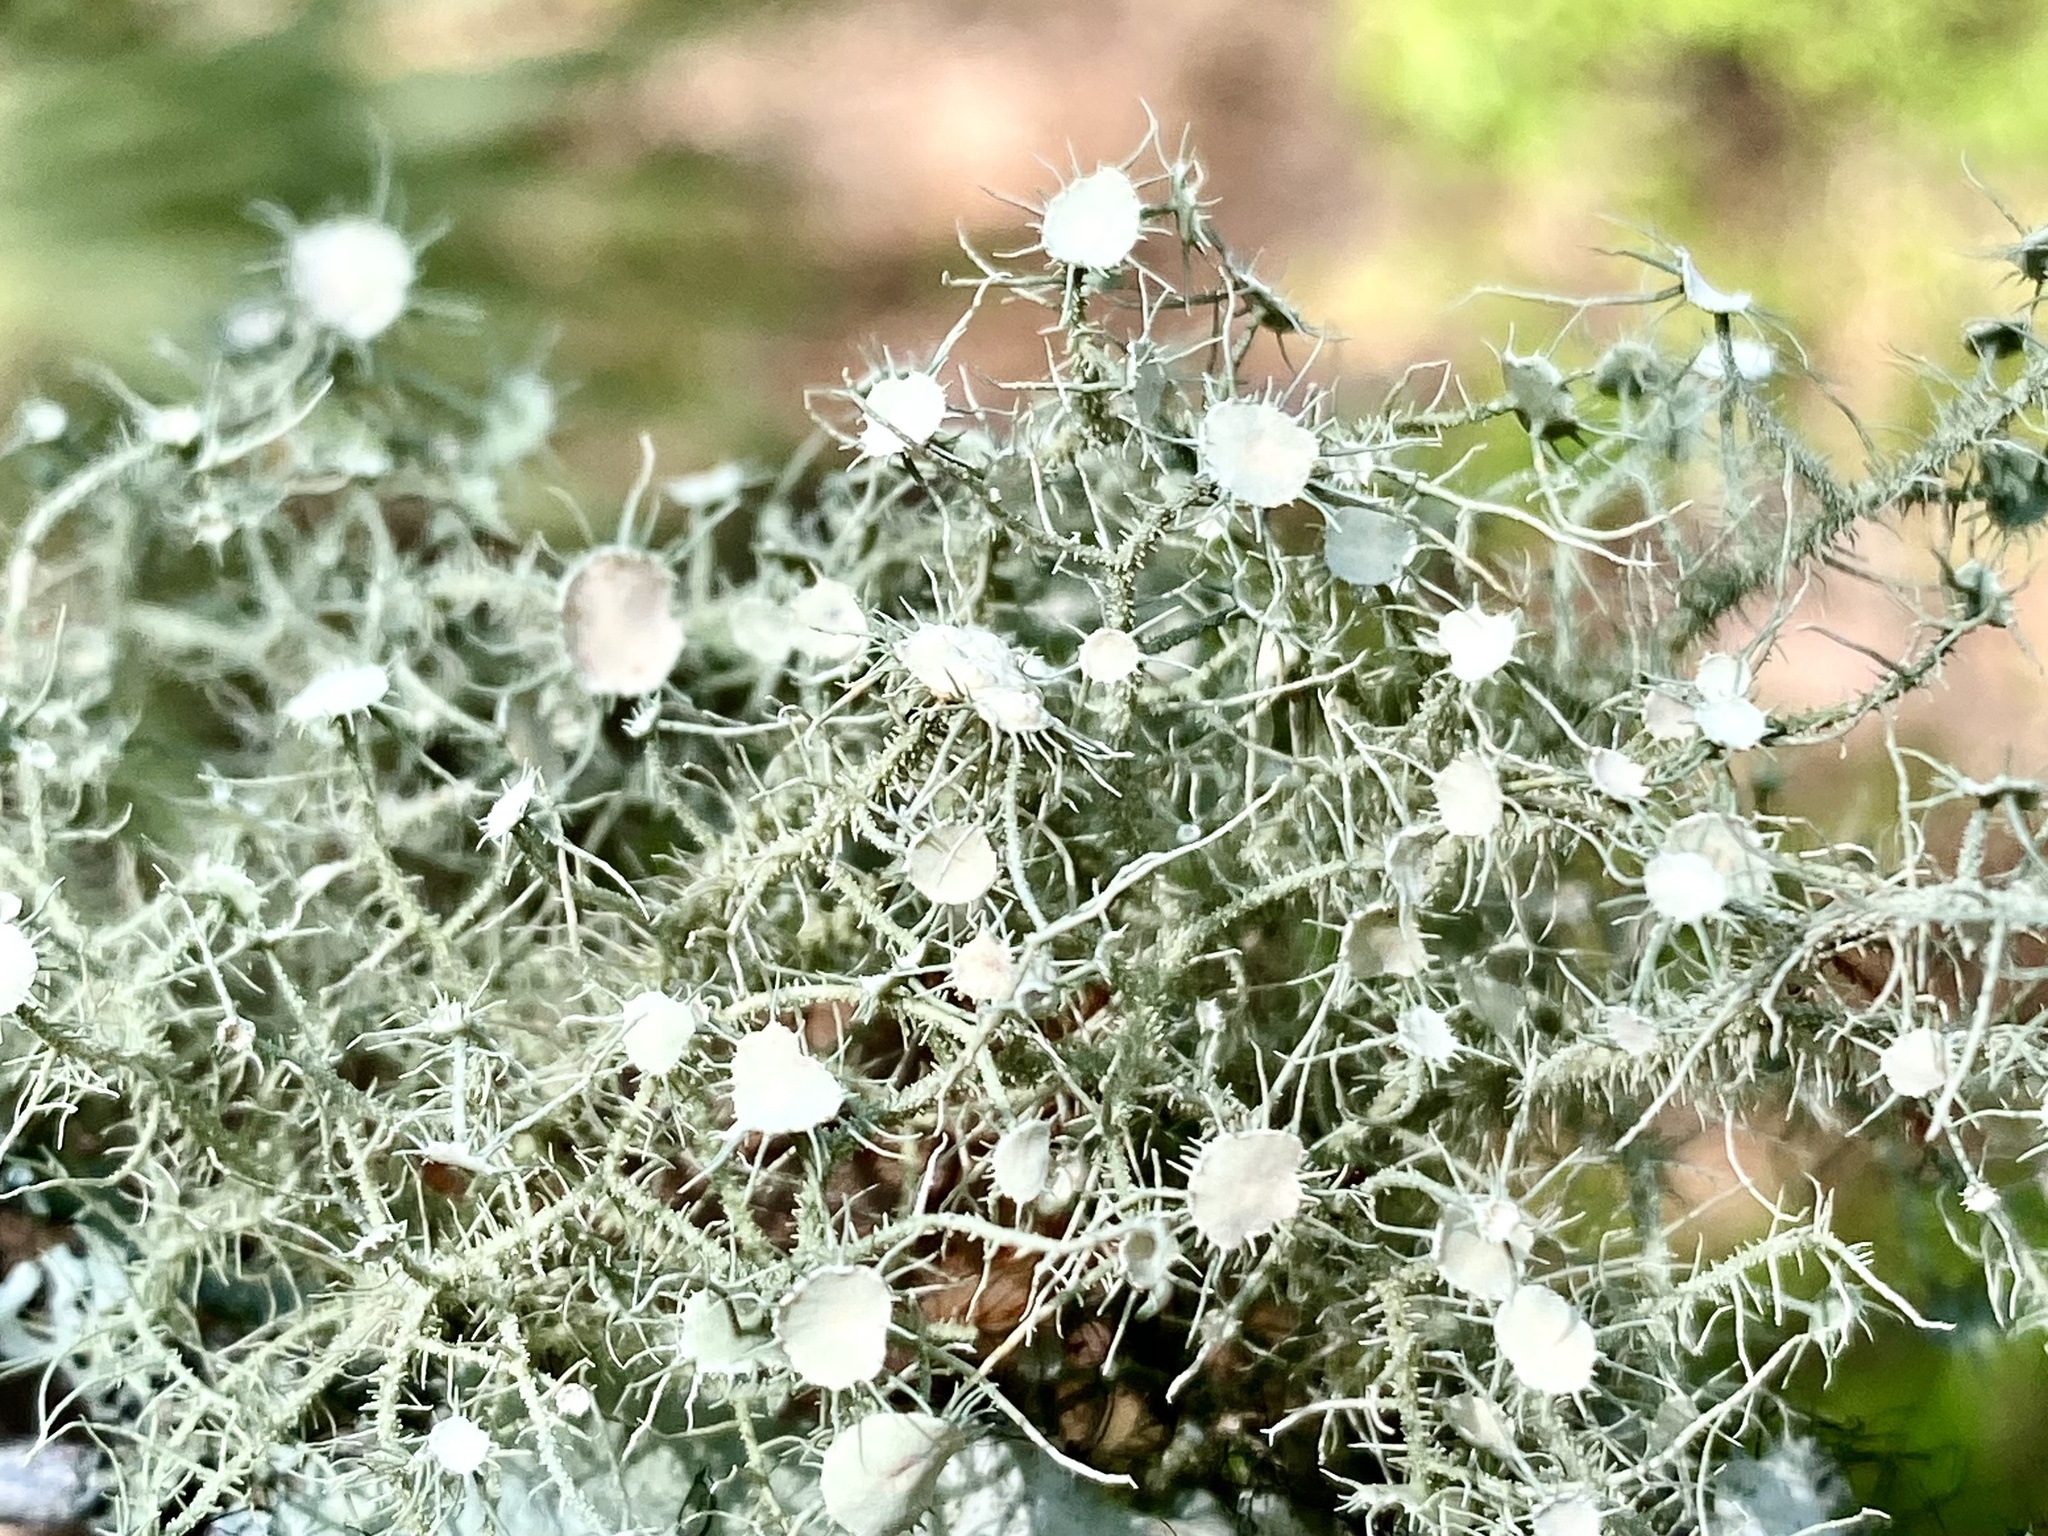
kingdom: Fungi
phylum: Ascomycota
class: Lecanoromycetes
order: Lecanorales
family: Parmeliaceae
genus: Usnea
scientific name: Usnea strigosa
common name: Bushy beard lichen
